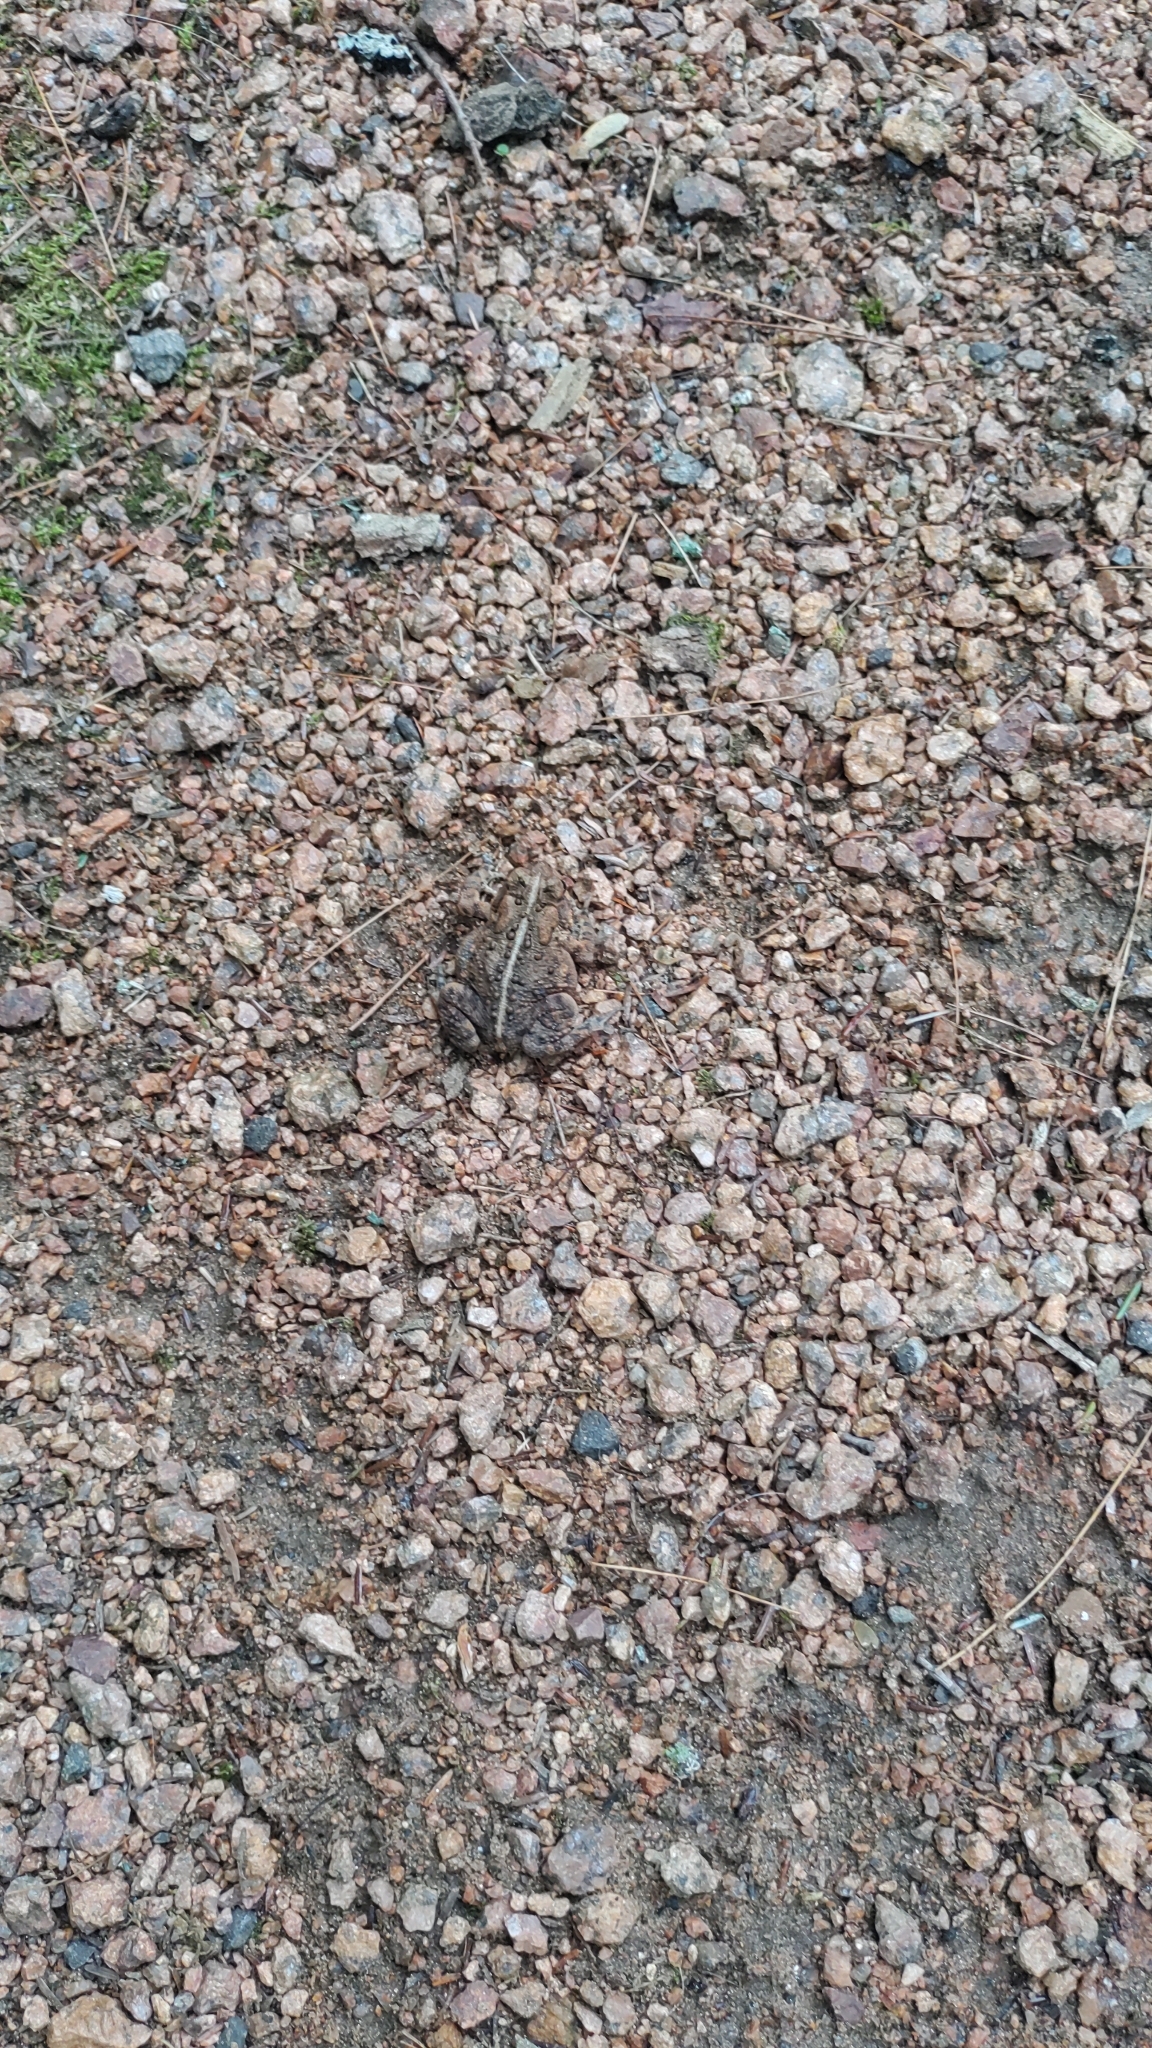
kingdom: Animalia
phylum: Chordata
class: Amphibia
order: Anura
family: Bufonidae
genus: Anaxyrus
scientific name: Anaxyrus americanus
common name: American toad
